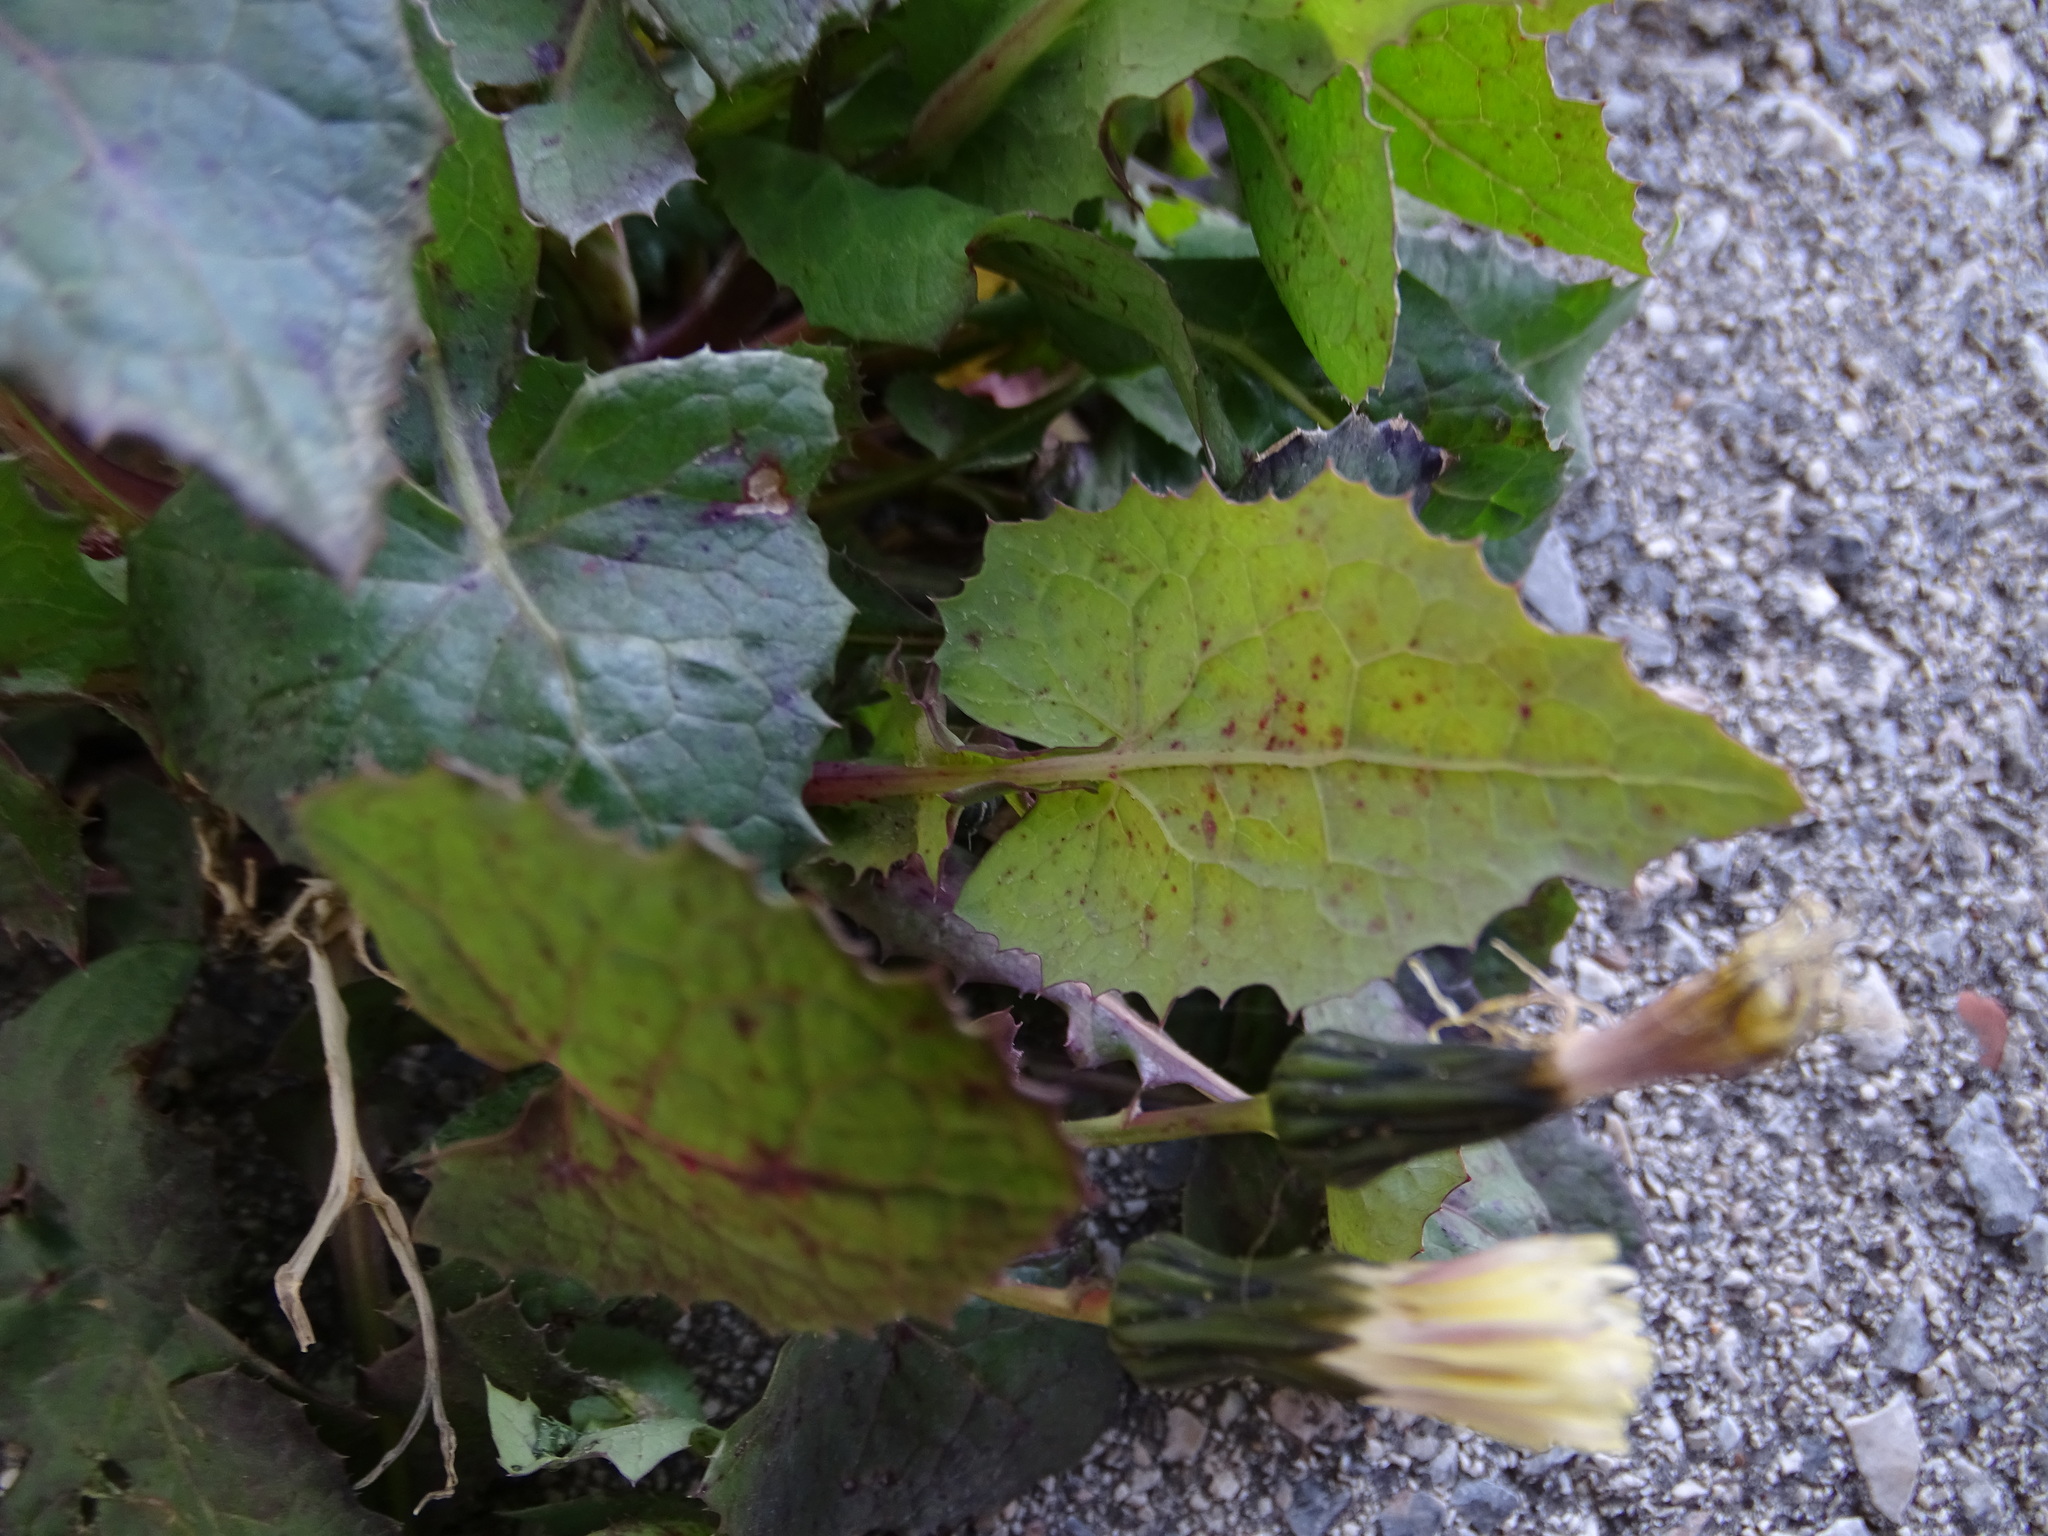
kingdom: Plantae
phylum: Tracheophyta
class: Magnoliopsida
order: Asterales
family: Asteraceae
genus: Sonchus
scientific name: Sonchus oleraceus
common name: Common sowthistle
